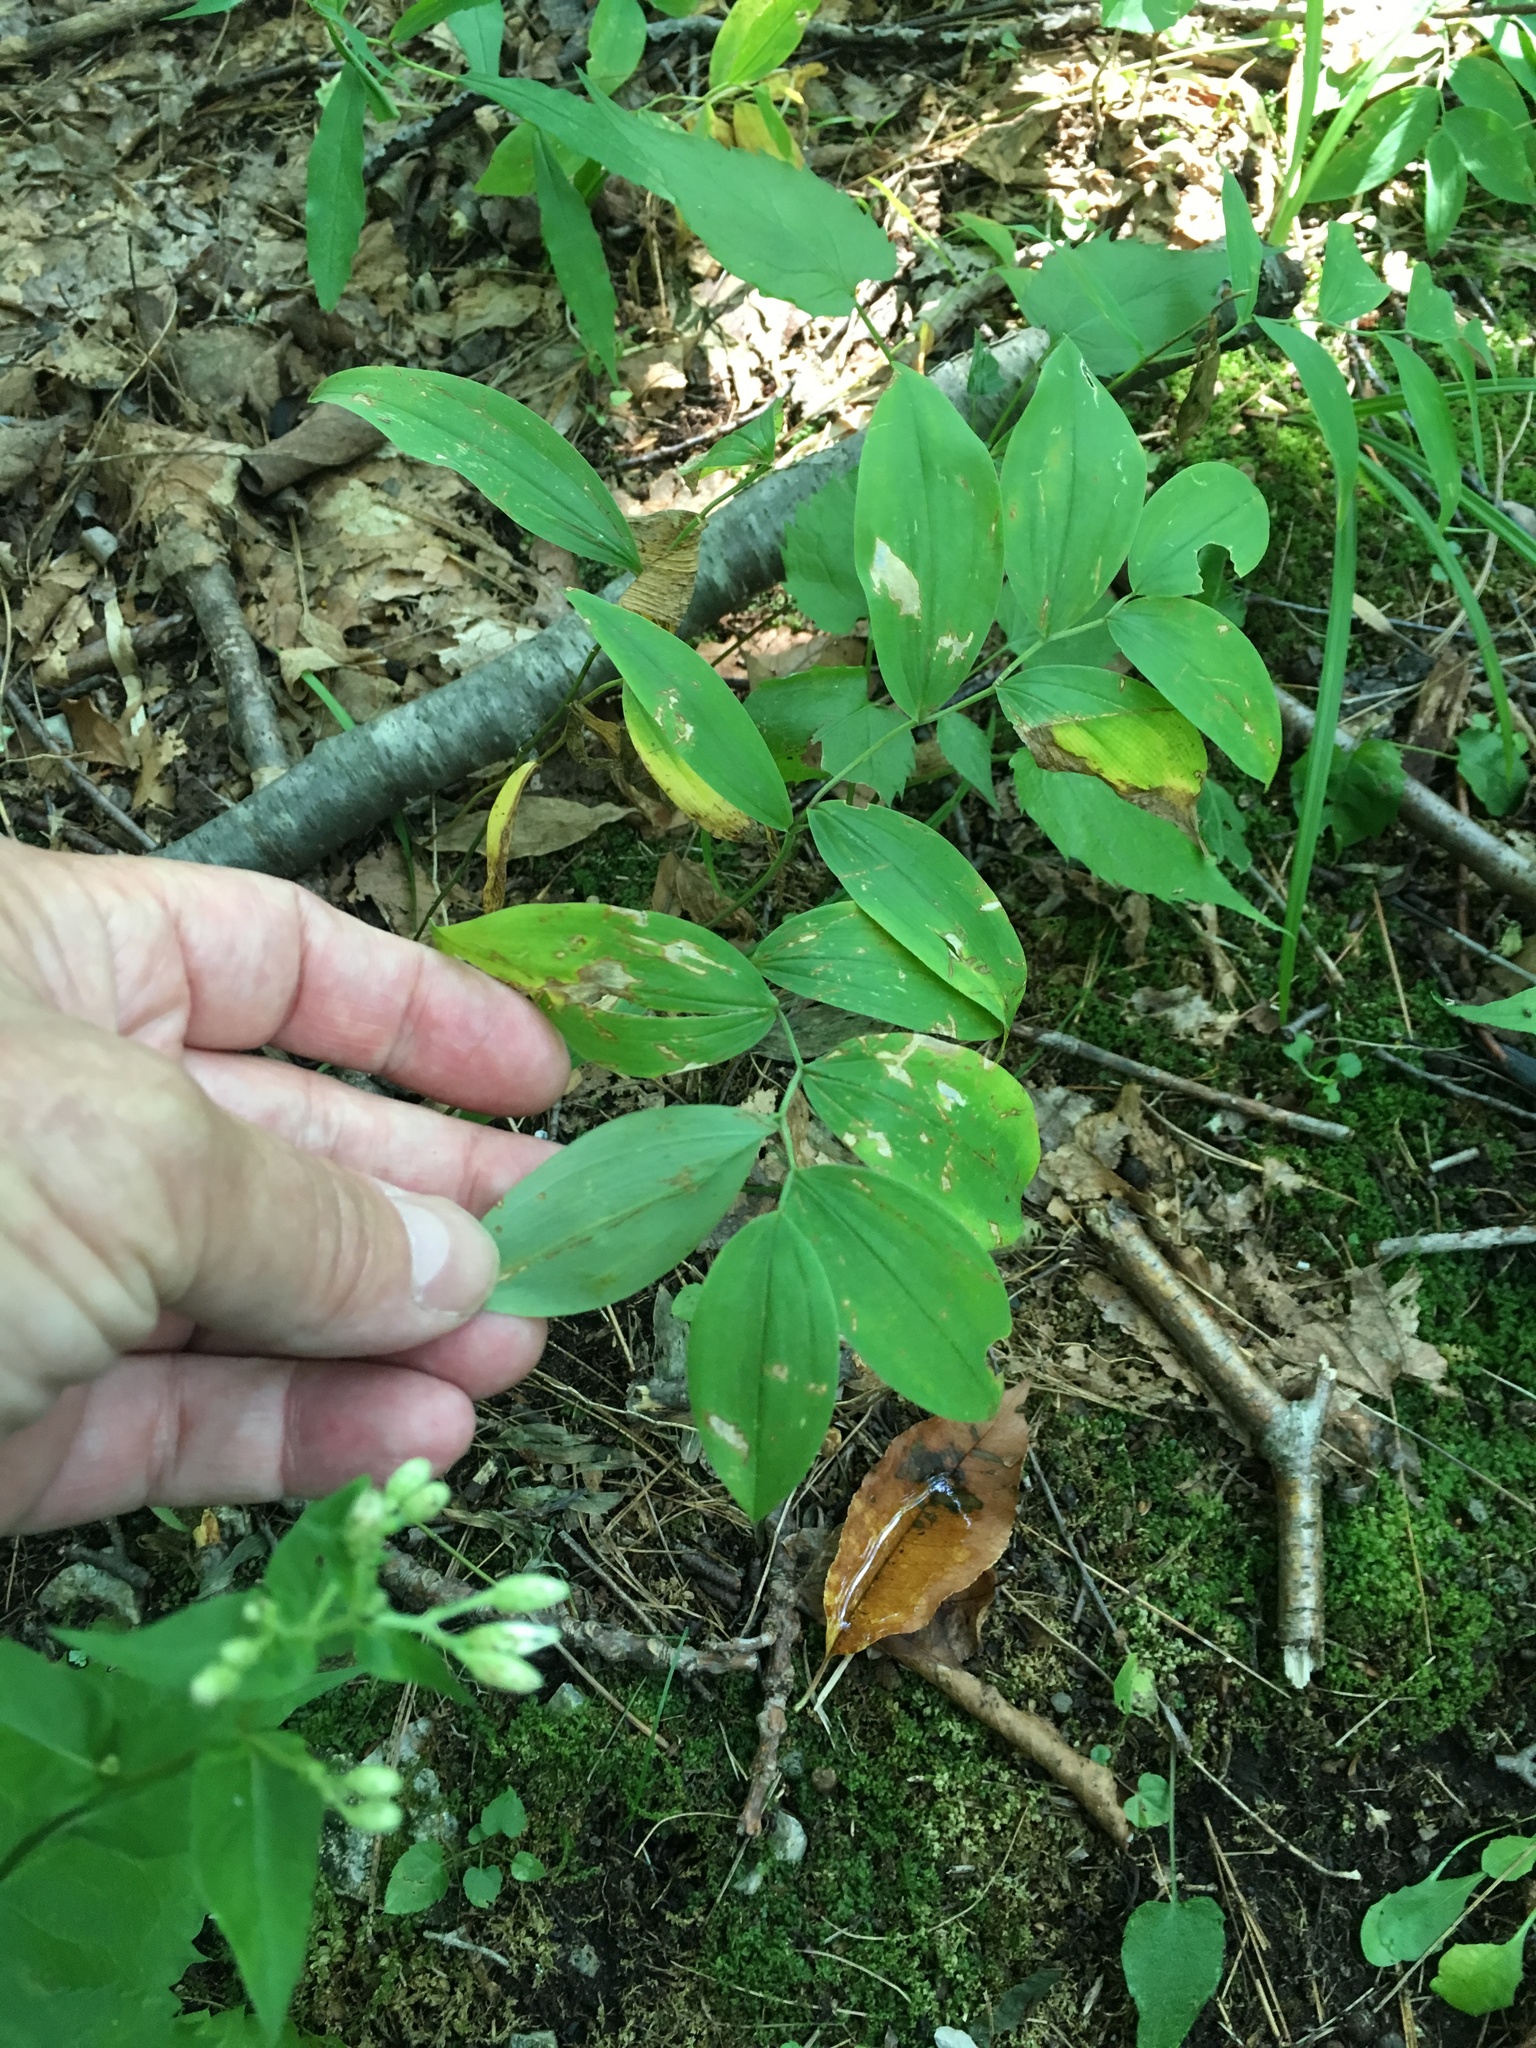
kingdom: Plantae
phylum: Tracheophyta
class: Liliopsida
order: Liliales
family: Colchicaceae
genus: Uvularia
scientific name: Uvularia sessilifolia
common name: Straw-lily
